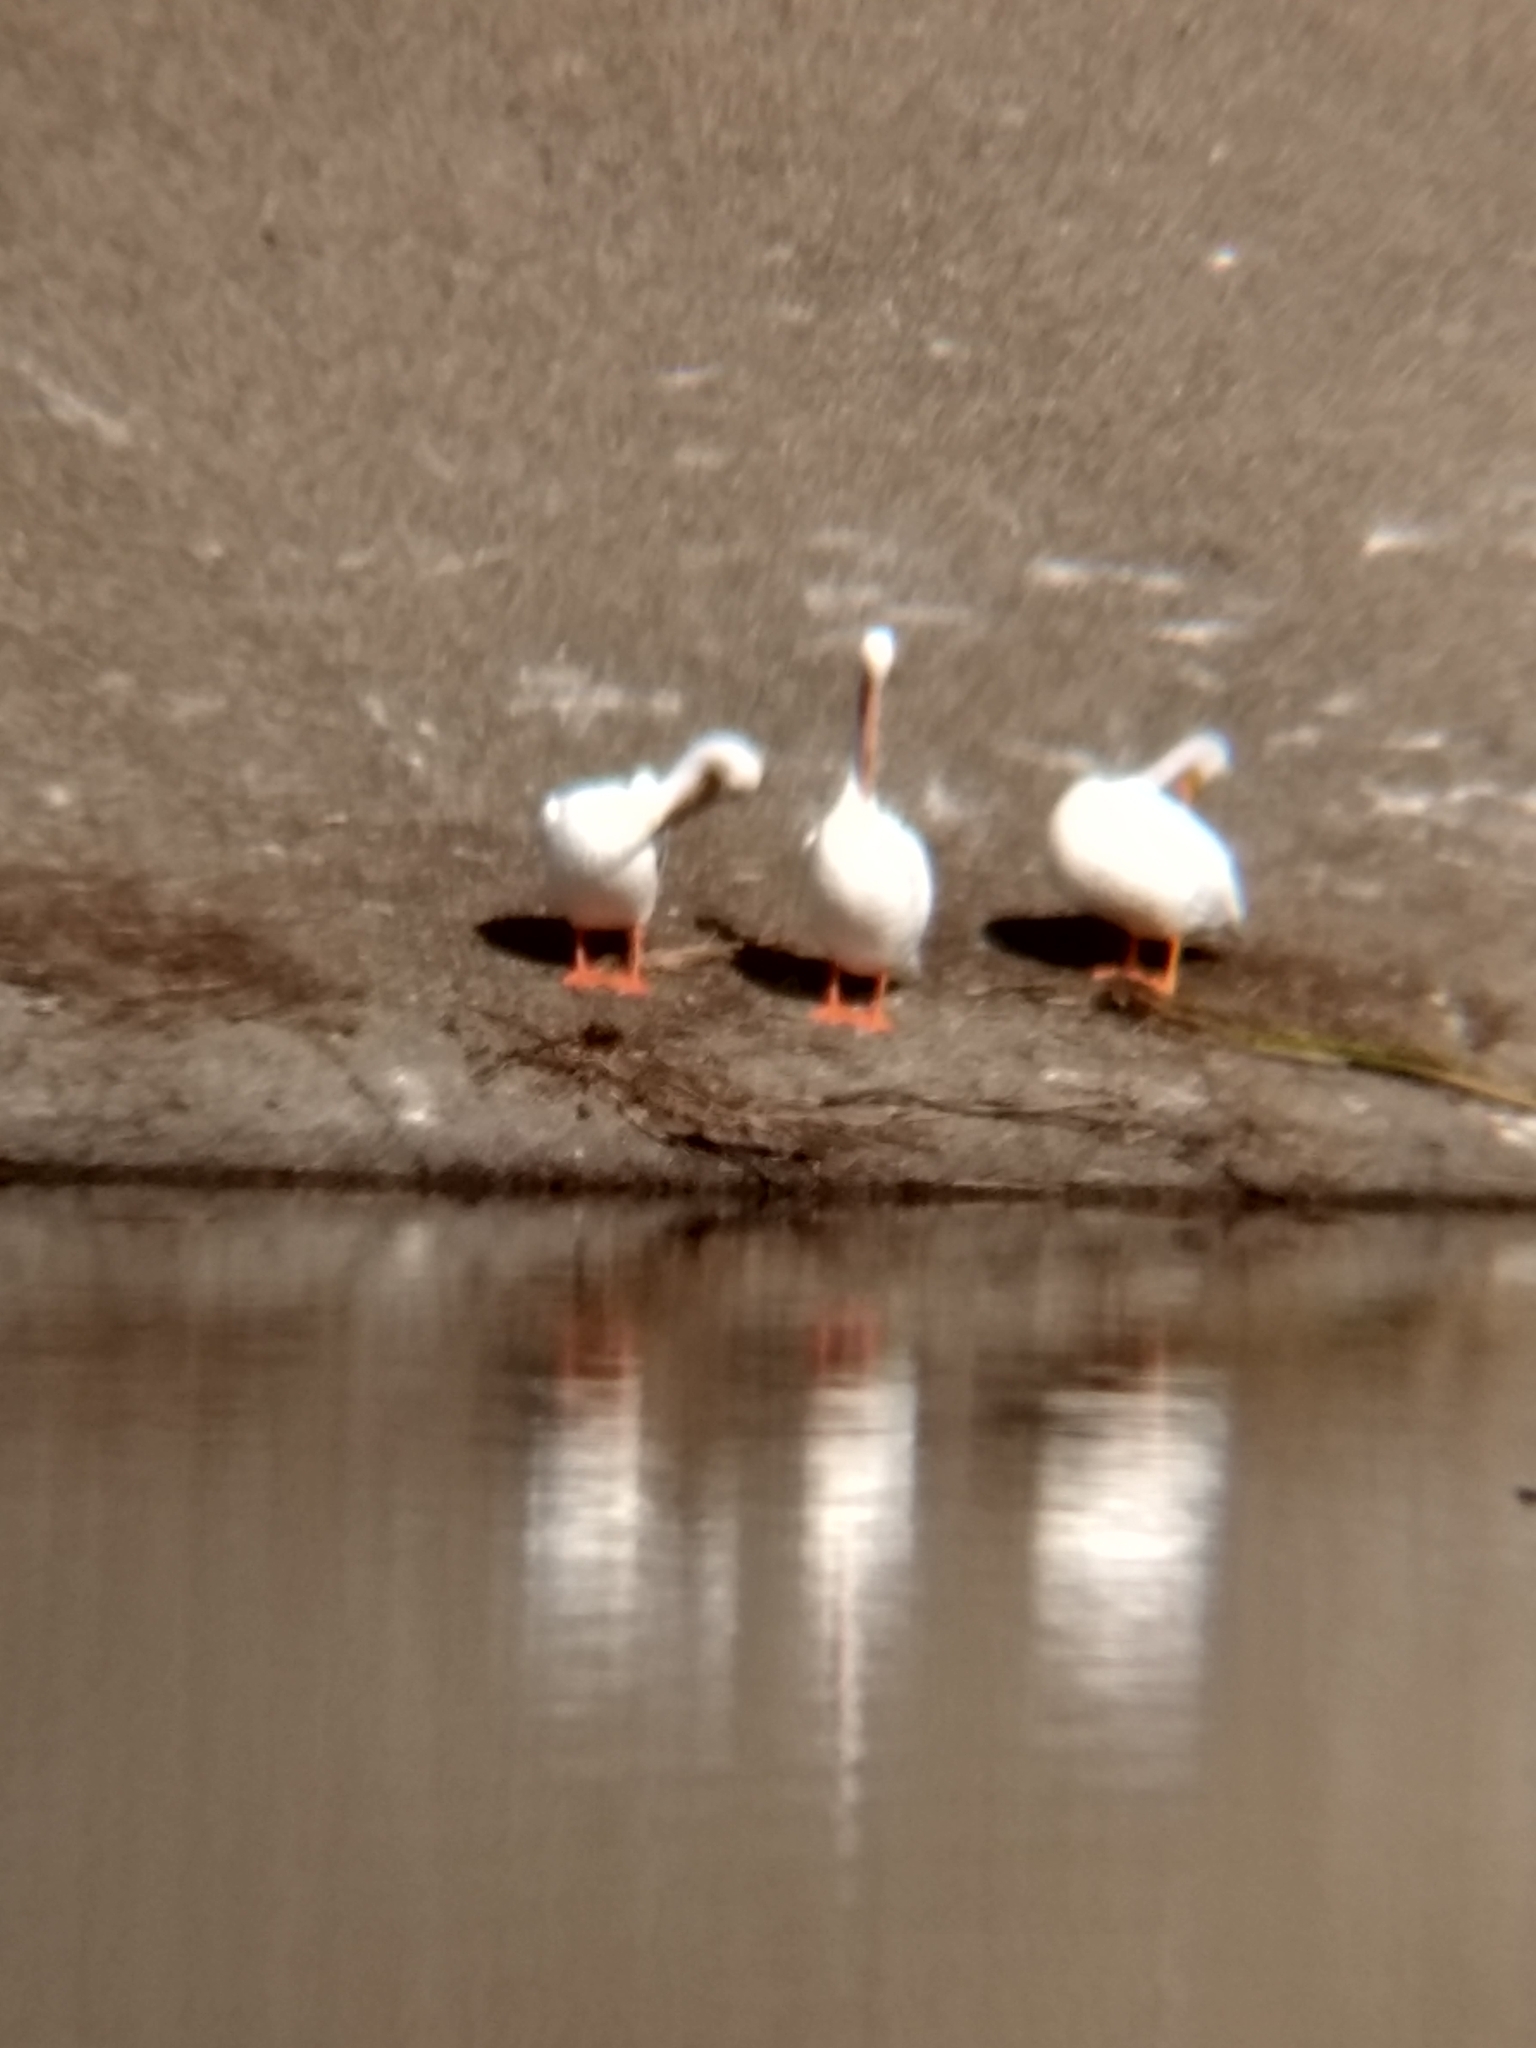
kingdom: Animalia
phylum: Chordata
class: Aves
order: Pelecaniformes
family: Pelecanidae
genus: Pelecanus
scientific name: Pelecanus erythrorhynchos
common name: American white pelican
